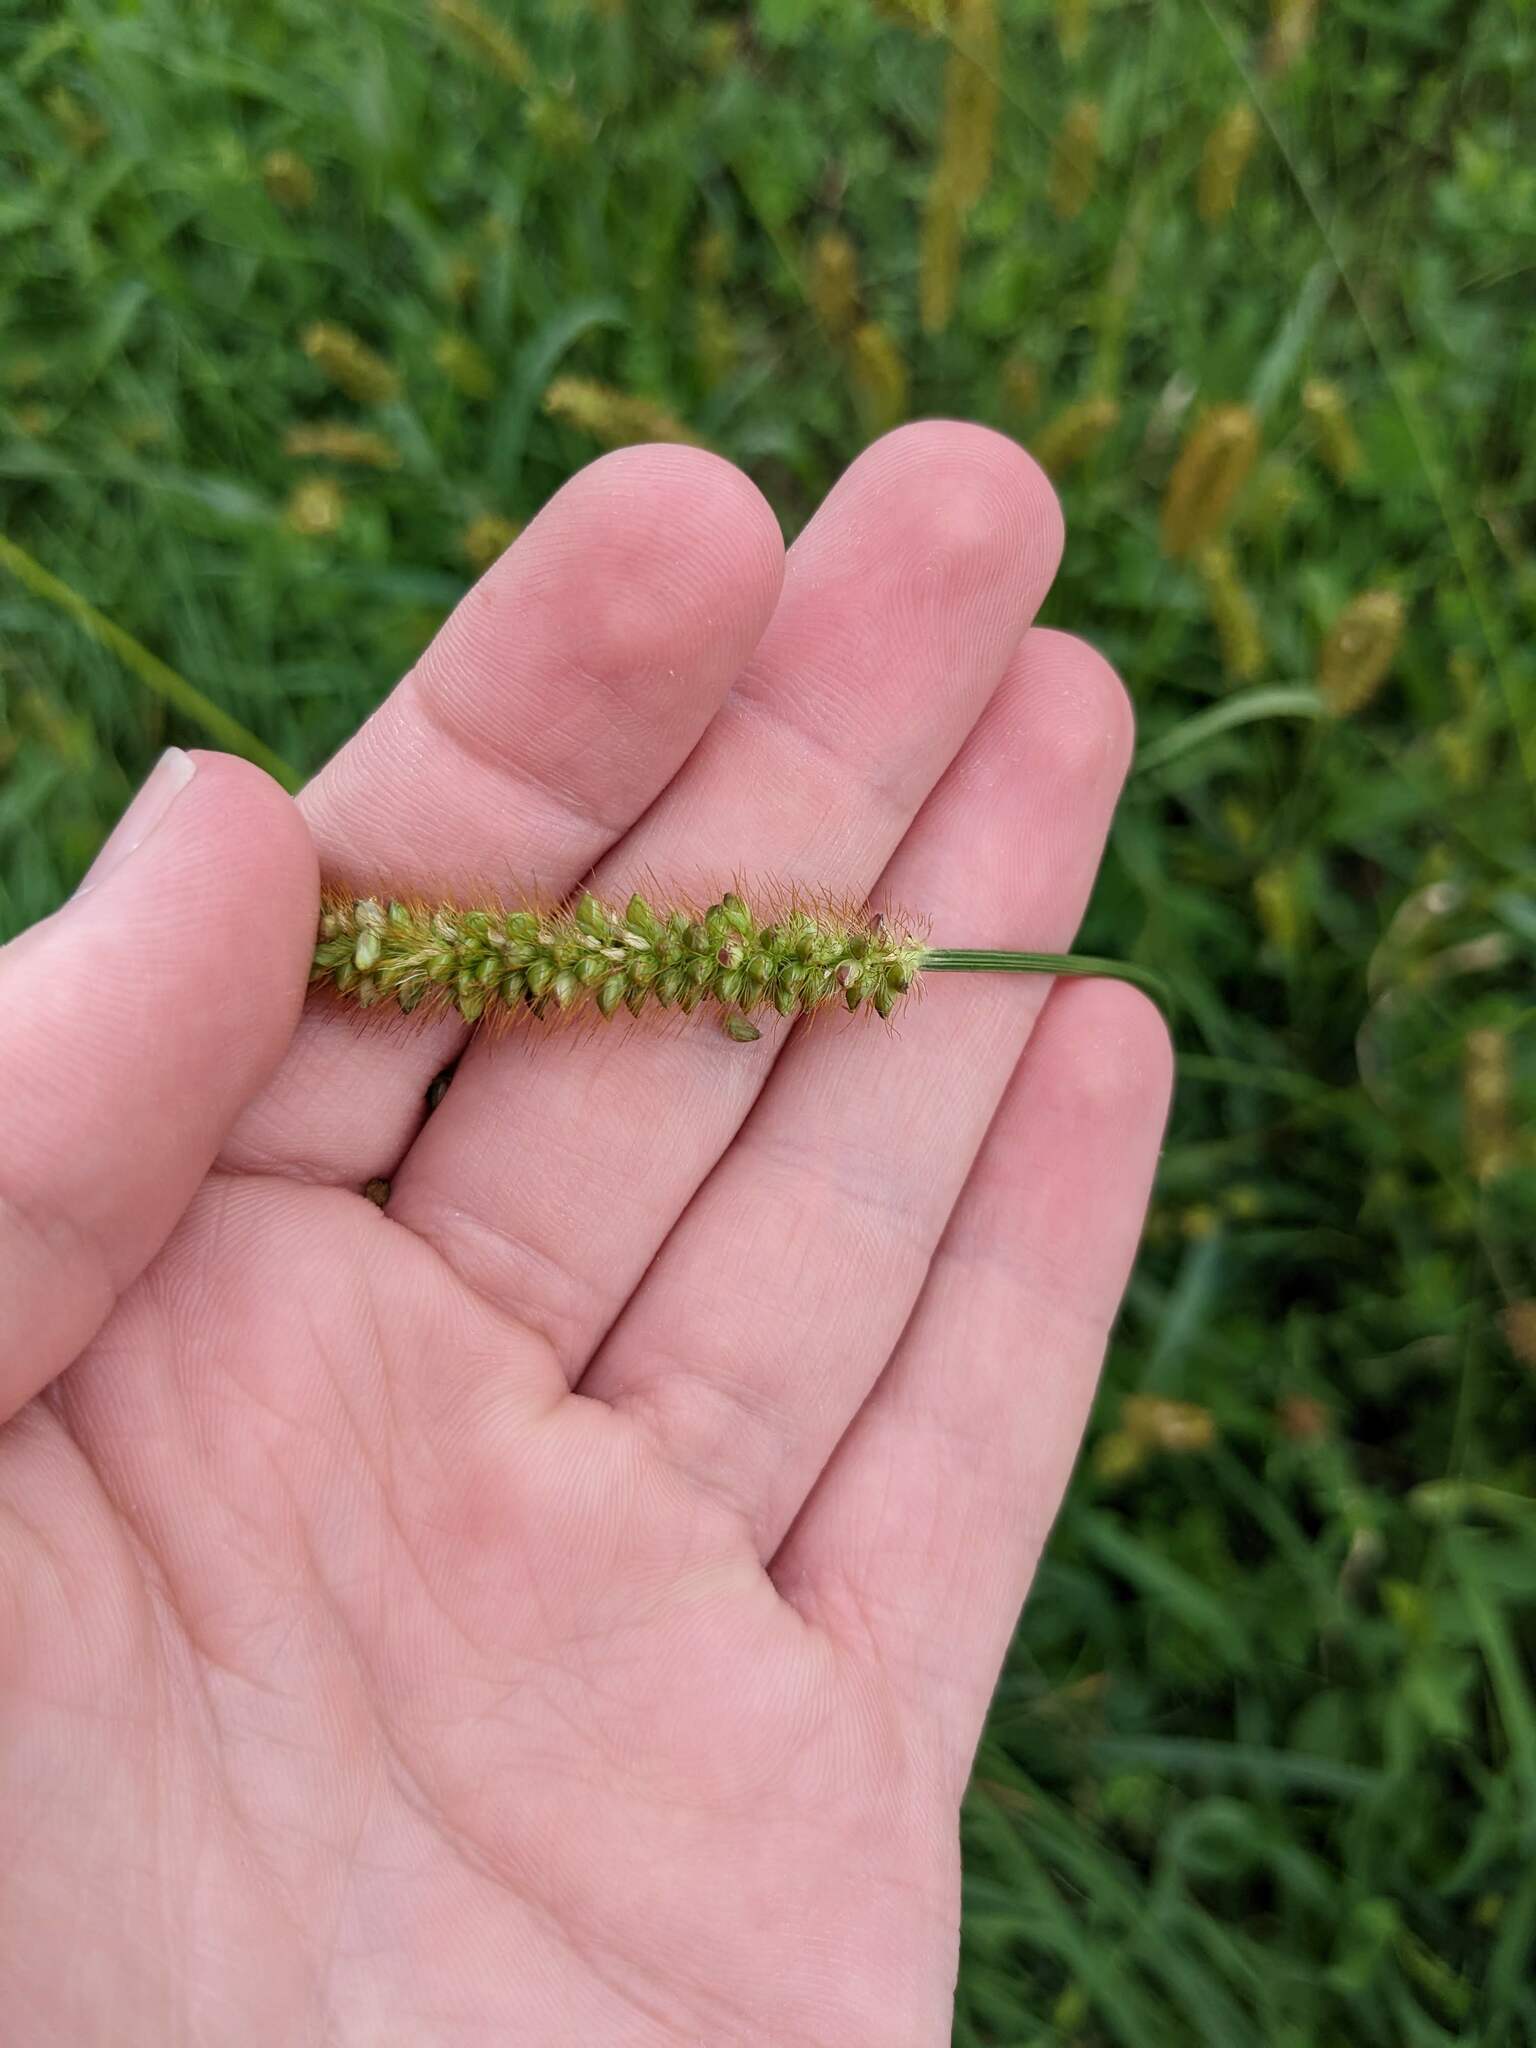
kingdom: Plantae
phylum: Tracheophyta
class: Liliopsida
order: Poales
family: Poaceae
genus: Setaria
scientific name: Setaria pumila
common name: Yellow bristle-grass
